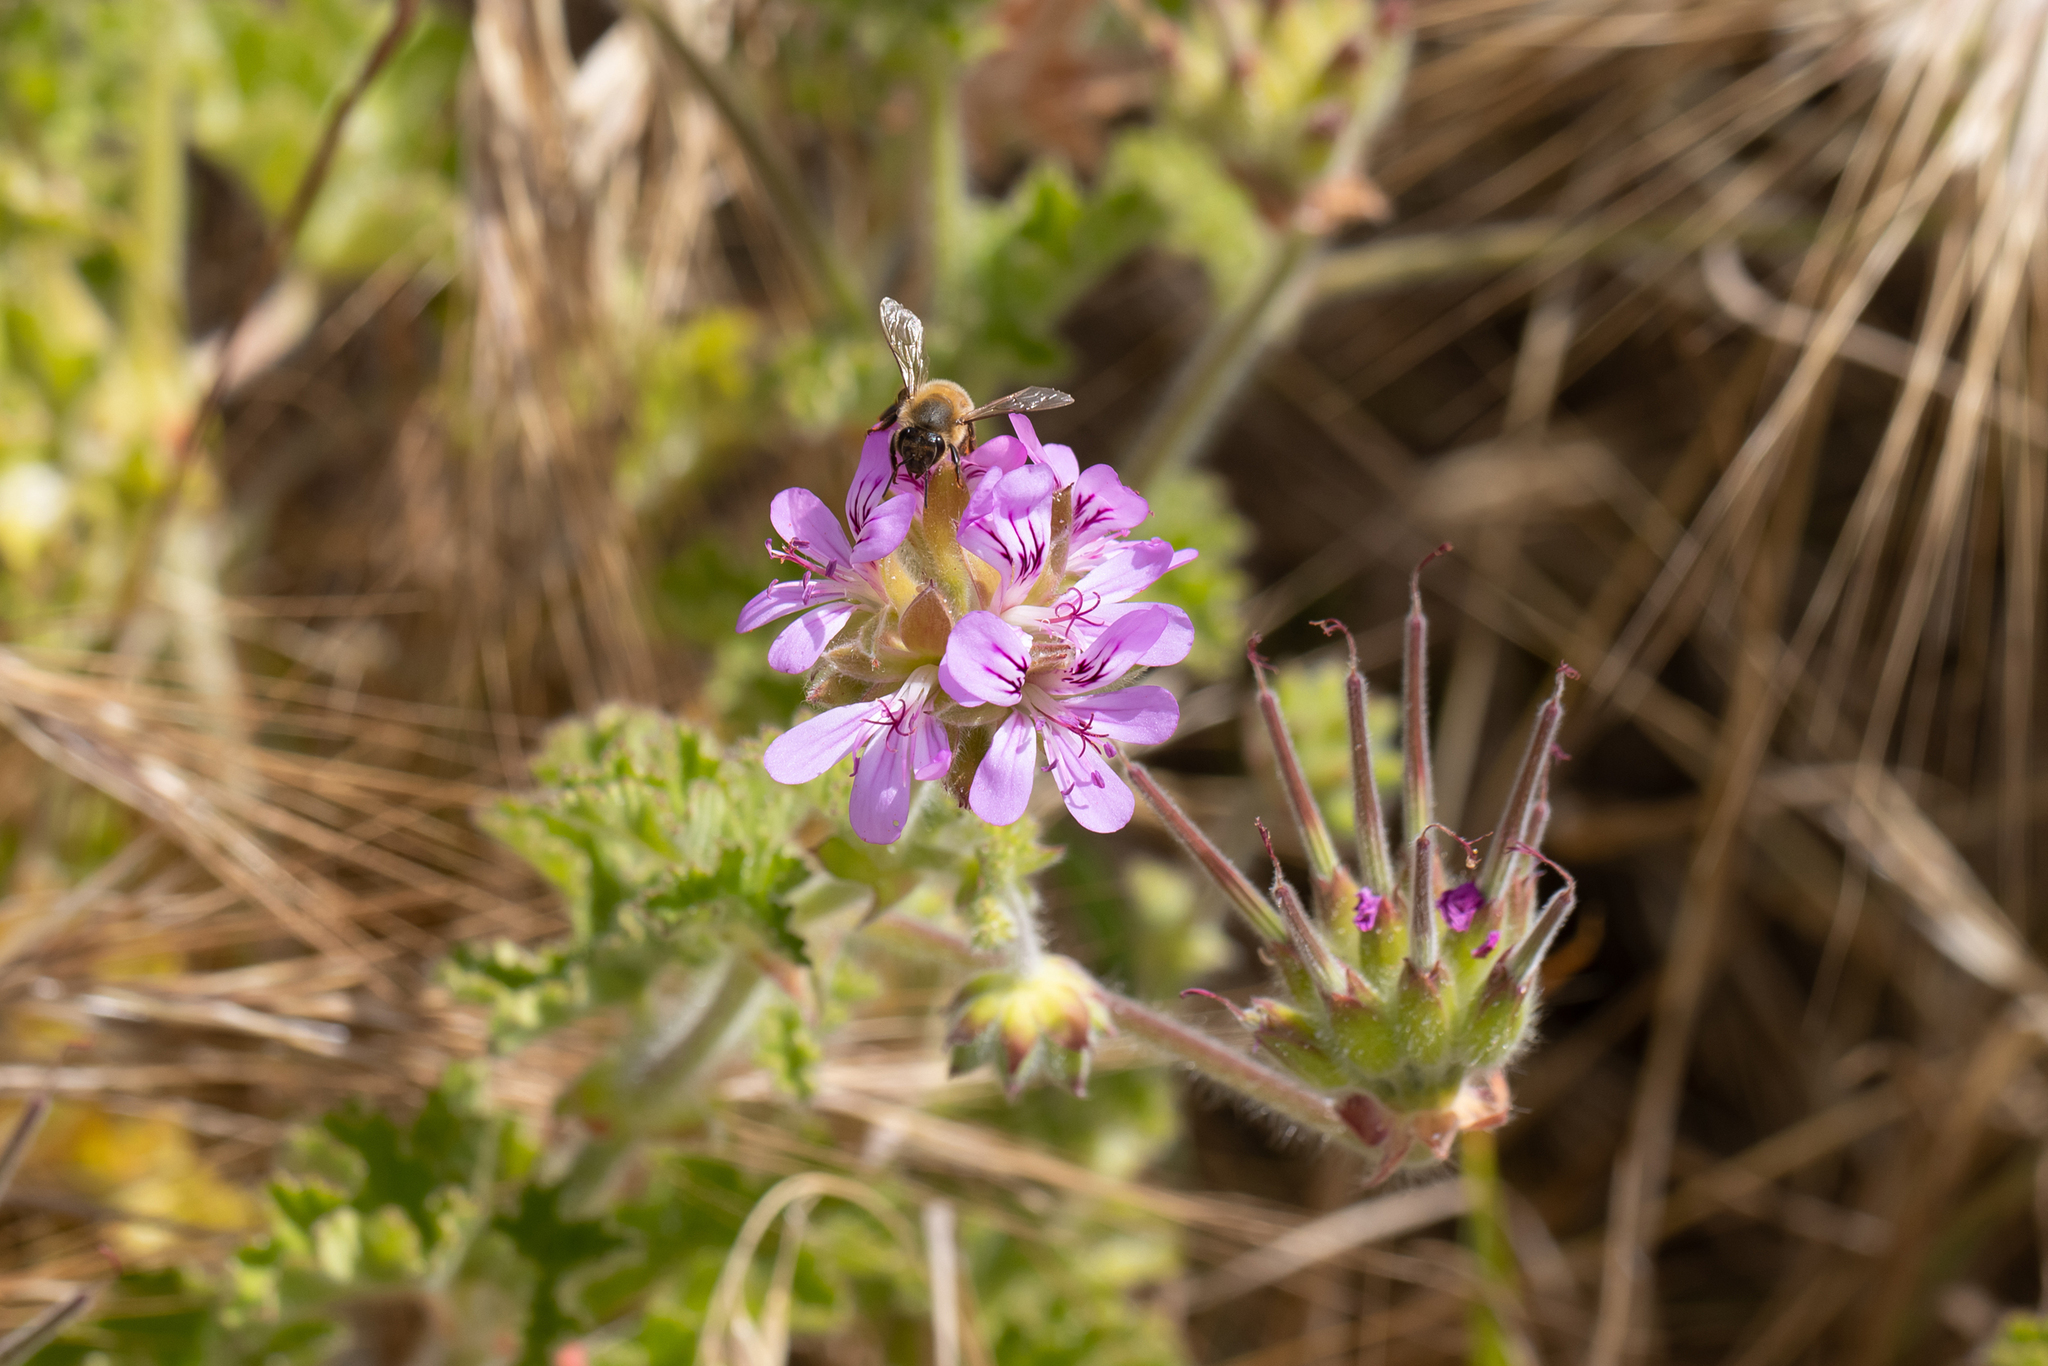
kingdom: Plantae
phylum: Tracheophyta
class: Magnoliopsida
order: Geraniales
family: Geraniaceae
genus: Pelargonium
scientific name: Pelargonium capitatum
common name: Rose scented geranium
